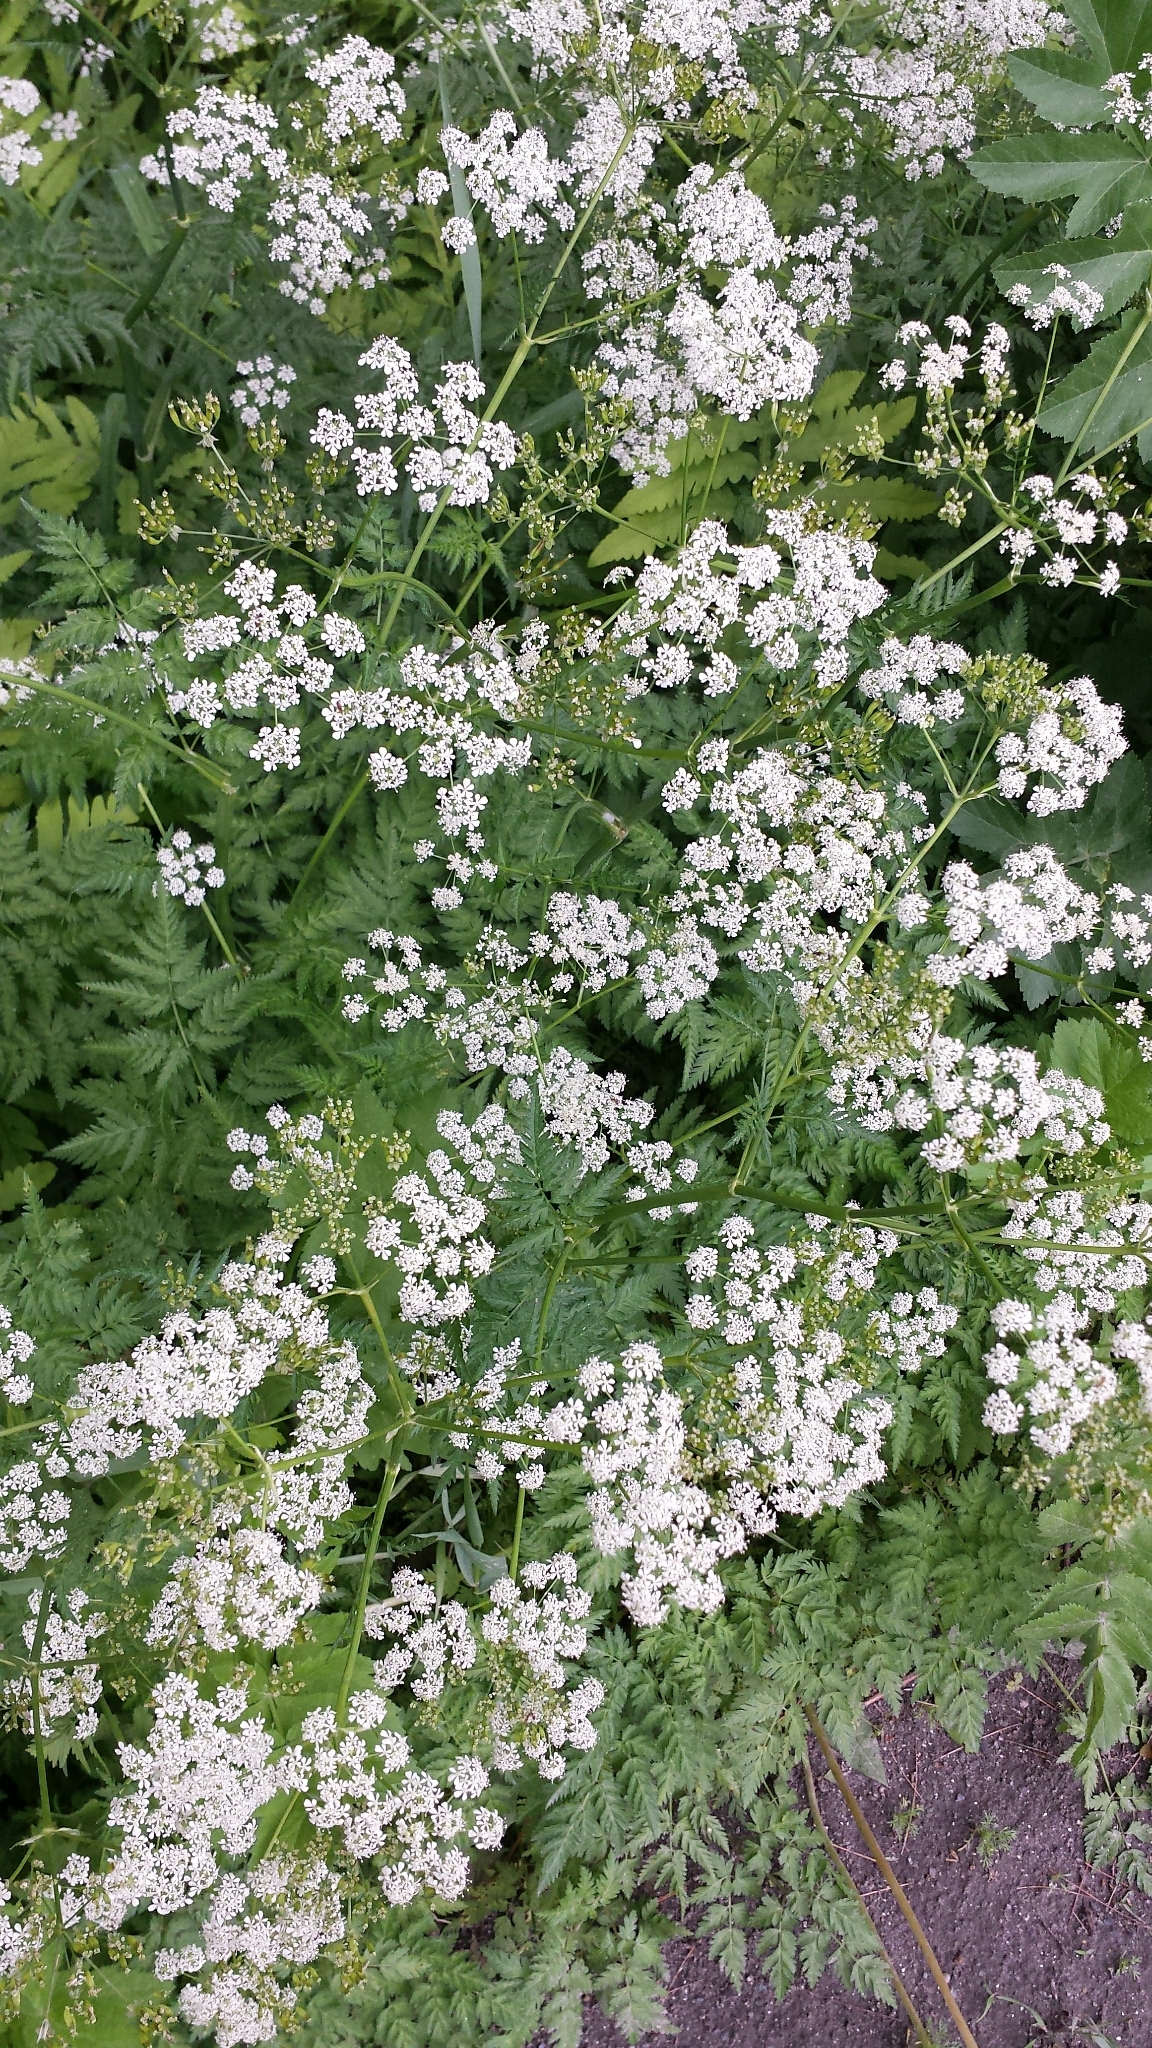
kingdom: Plantae
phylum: Tracheophyta
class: Magnoliopsida
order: Apiales
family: Apiaceae
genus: Anthriscus
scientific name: Anthriscus sylvestris
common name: Cow parsley
